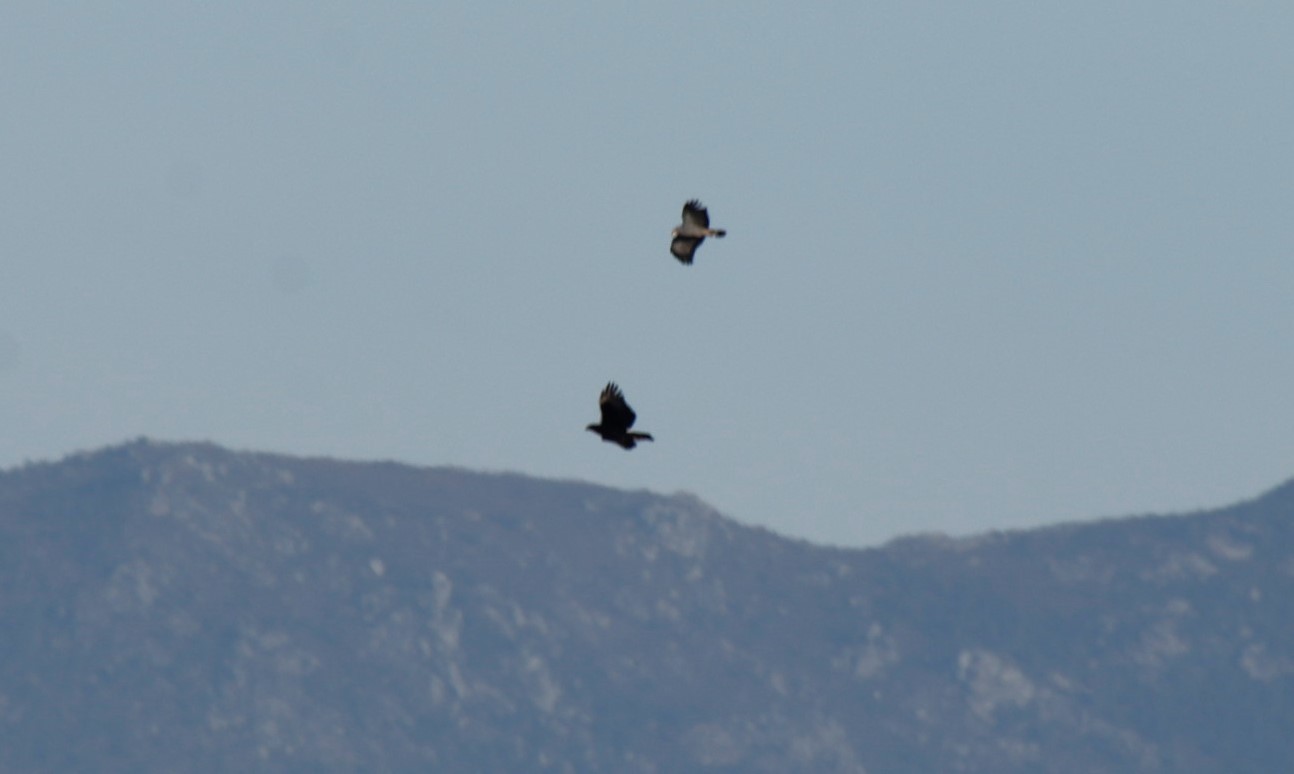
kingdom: Animalia
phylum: Chordata
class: Aves
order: Accipitriformes
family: Accipitridae
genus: Polyboroides
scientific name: Polyboroides typus
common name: African harrier-hawk
